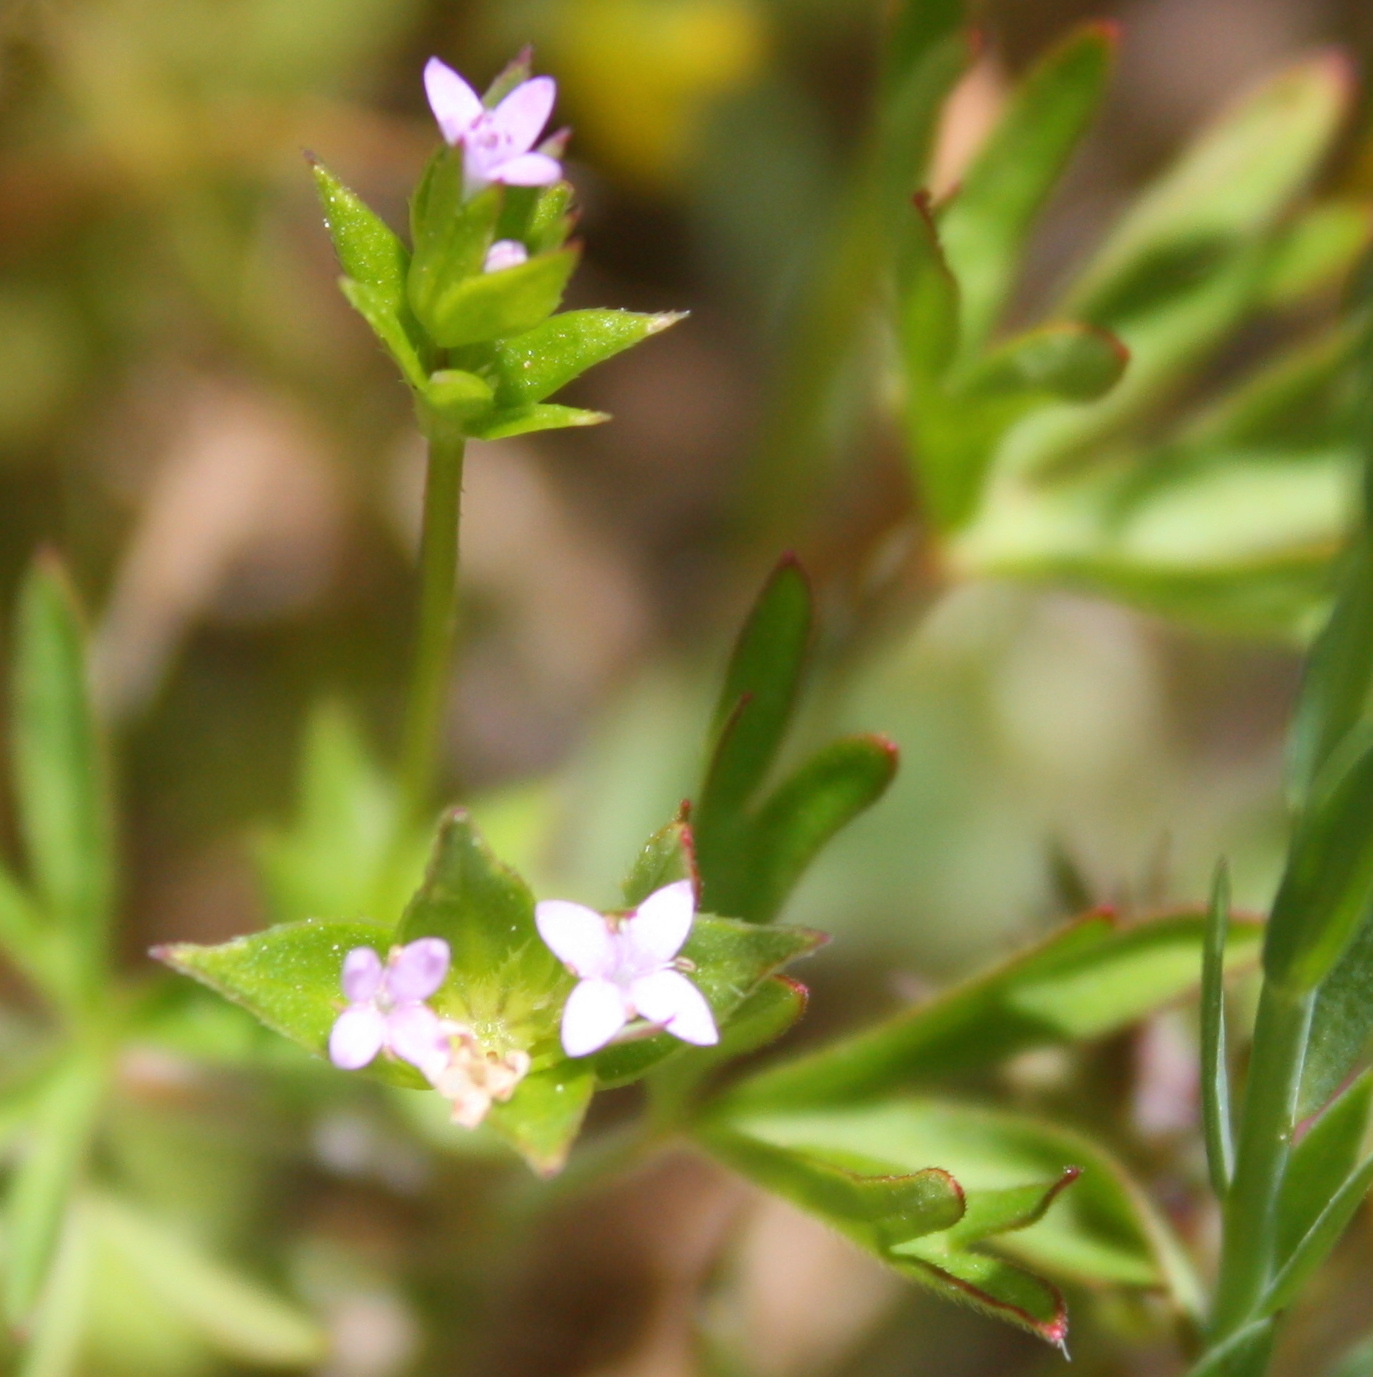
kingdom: Plantae
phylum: Tracheophyta
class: Magnoliopsida
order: Gentianales
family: Rubiaceae
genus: Sherardia
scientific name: Sherardia arvensis
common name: Field madder
